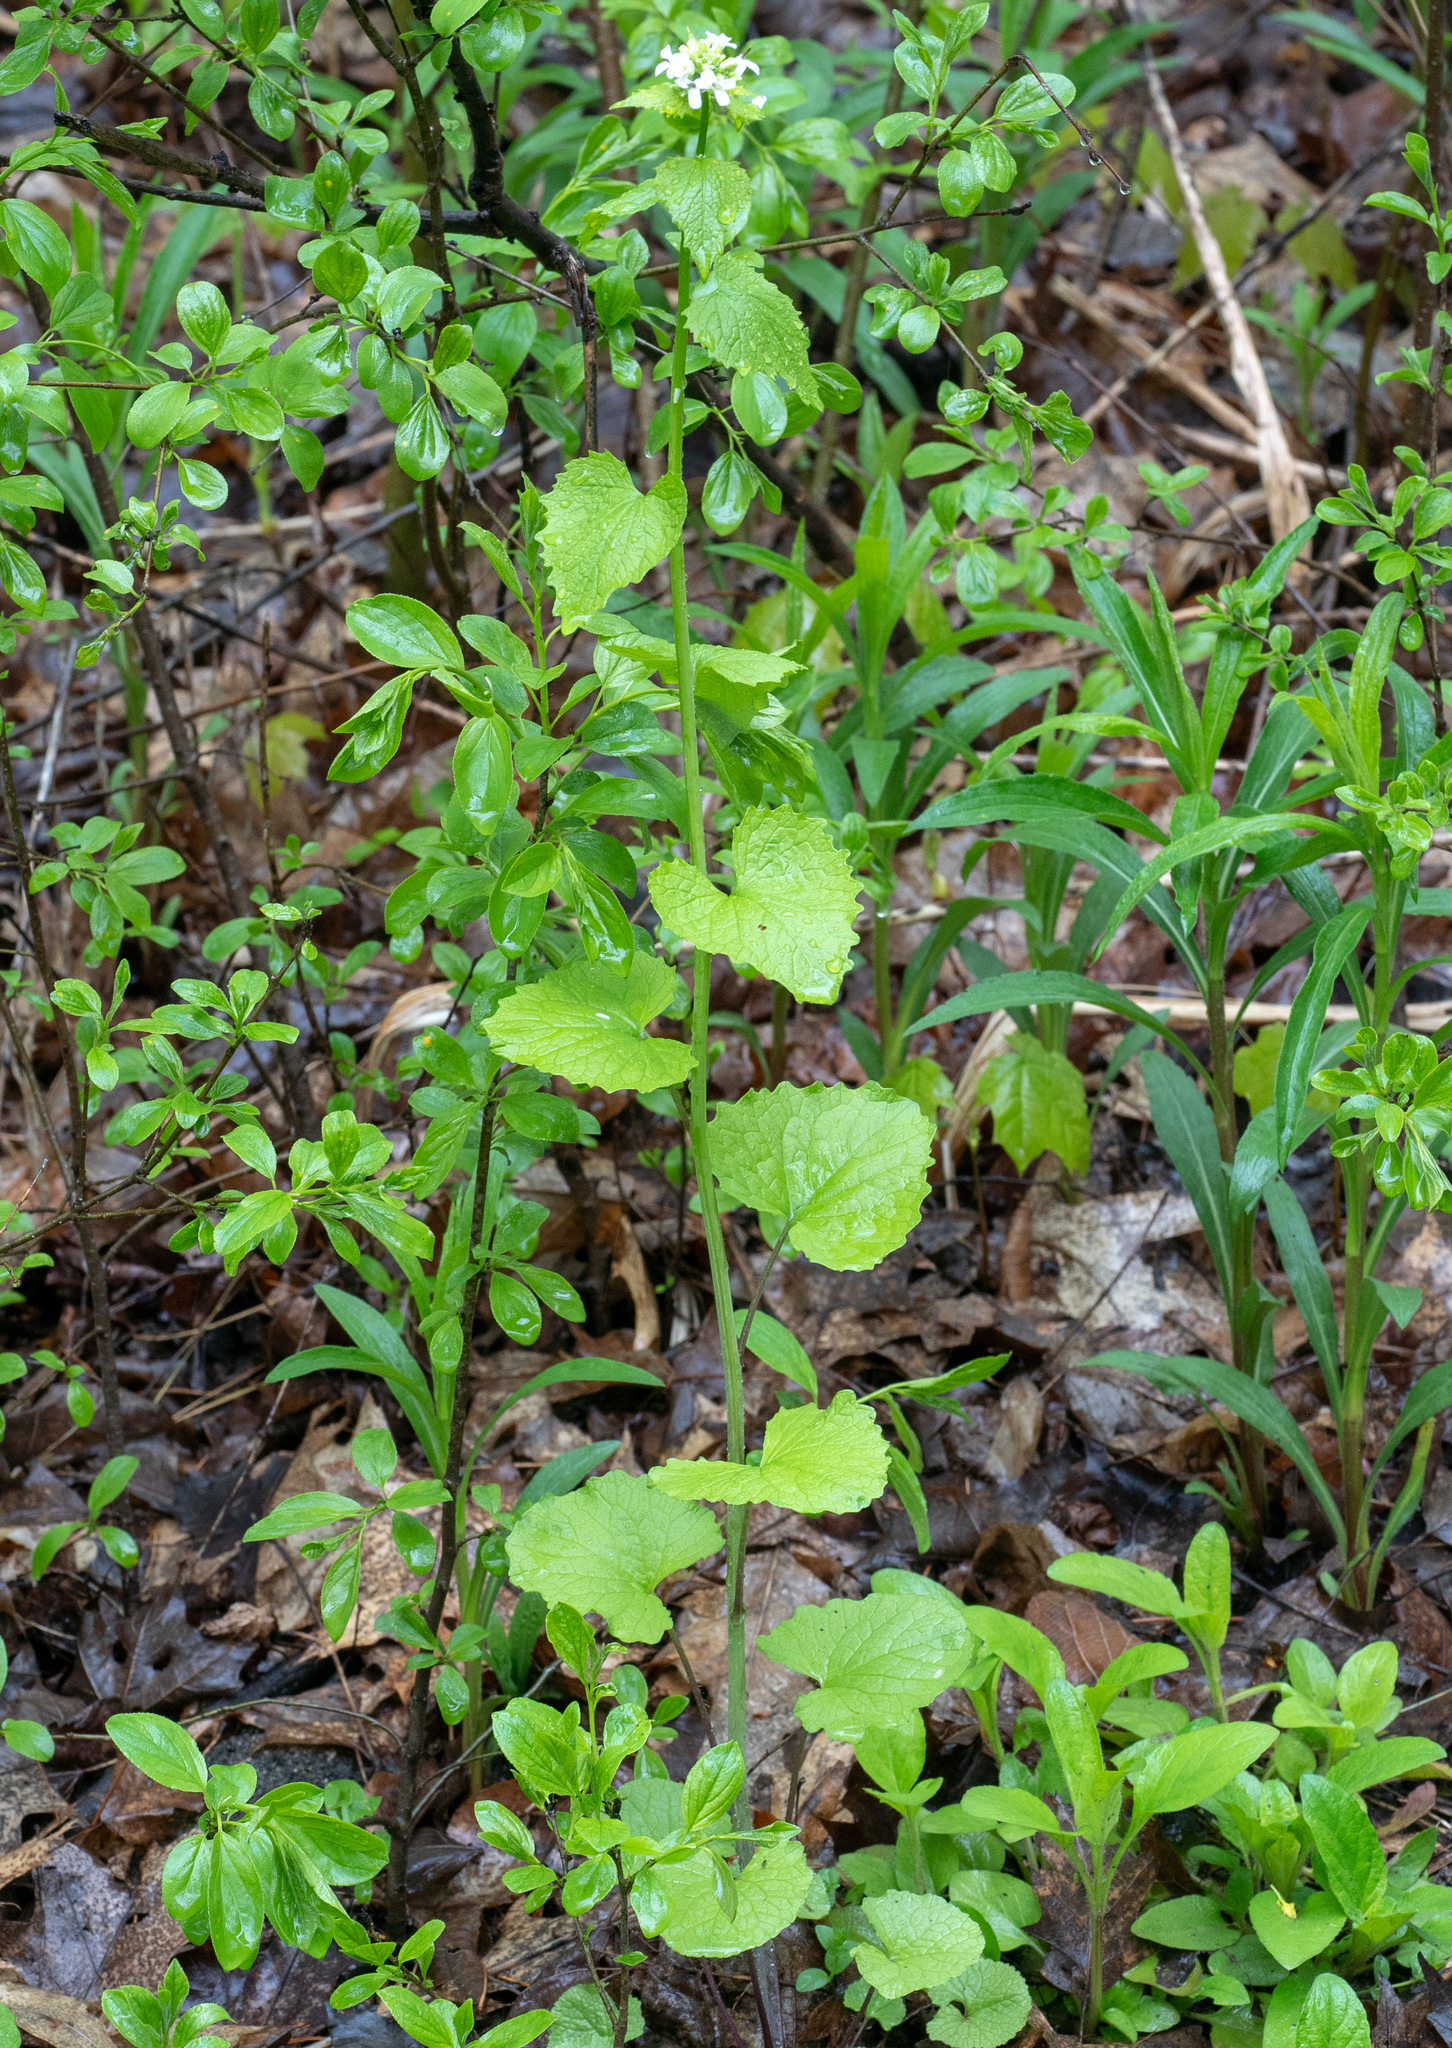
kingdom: Plantae
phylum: Tracheophyta
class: Magnoliopsida
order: Brassicales
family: Brassicaceae
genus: Alliaria
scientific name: Alliaria petiolata
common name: Garlic mustard
